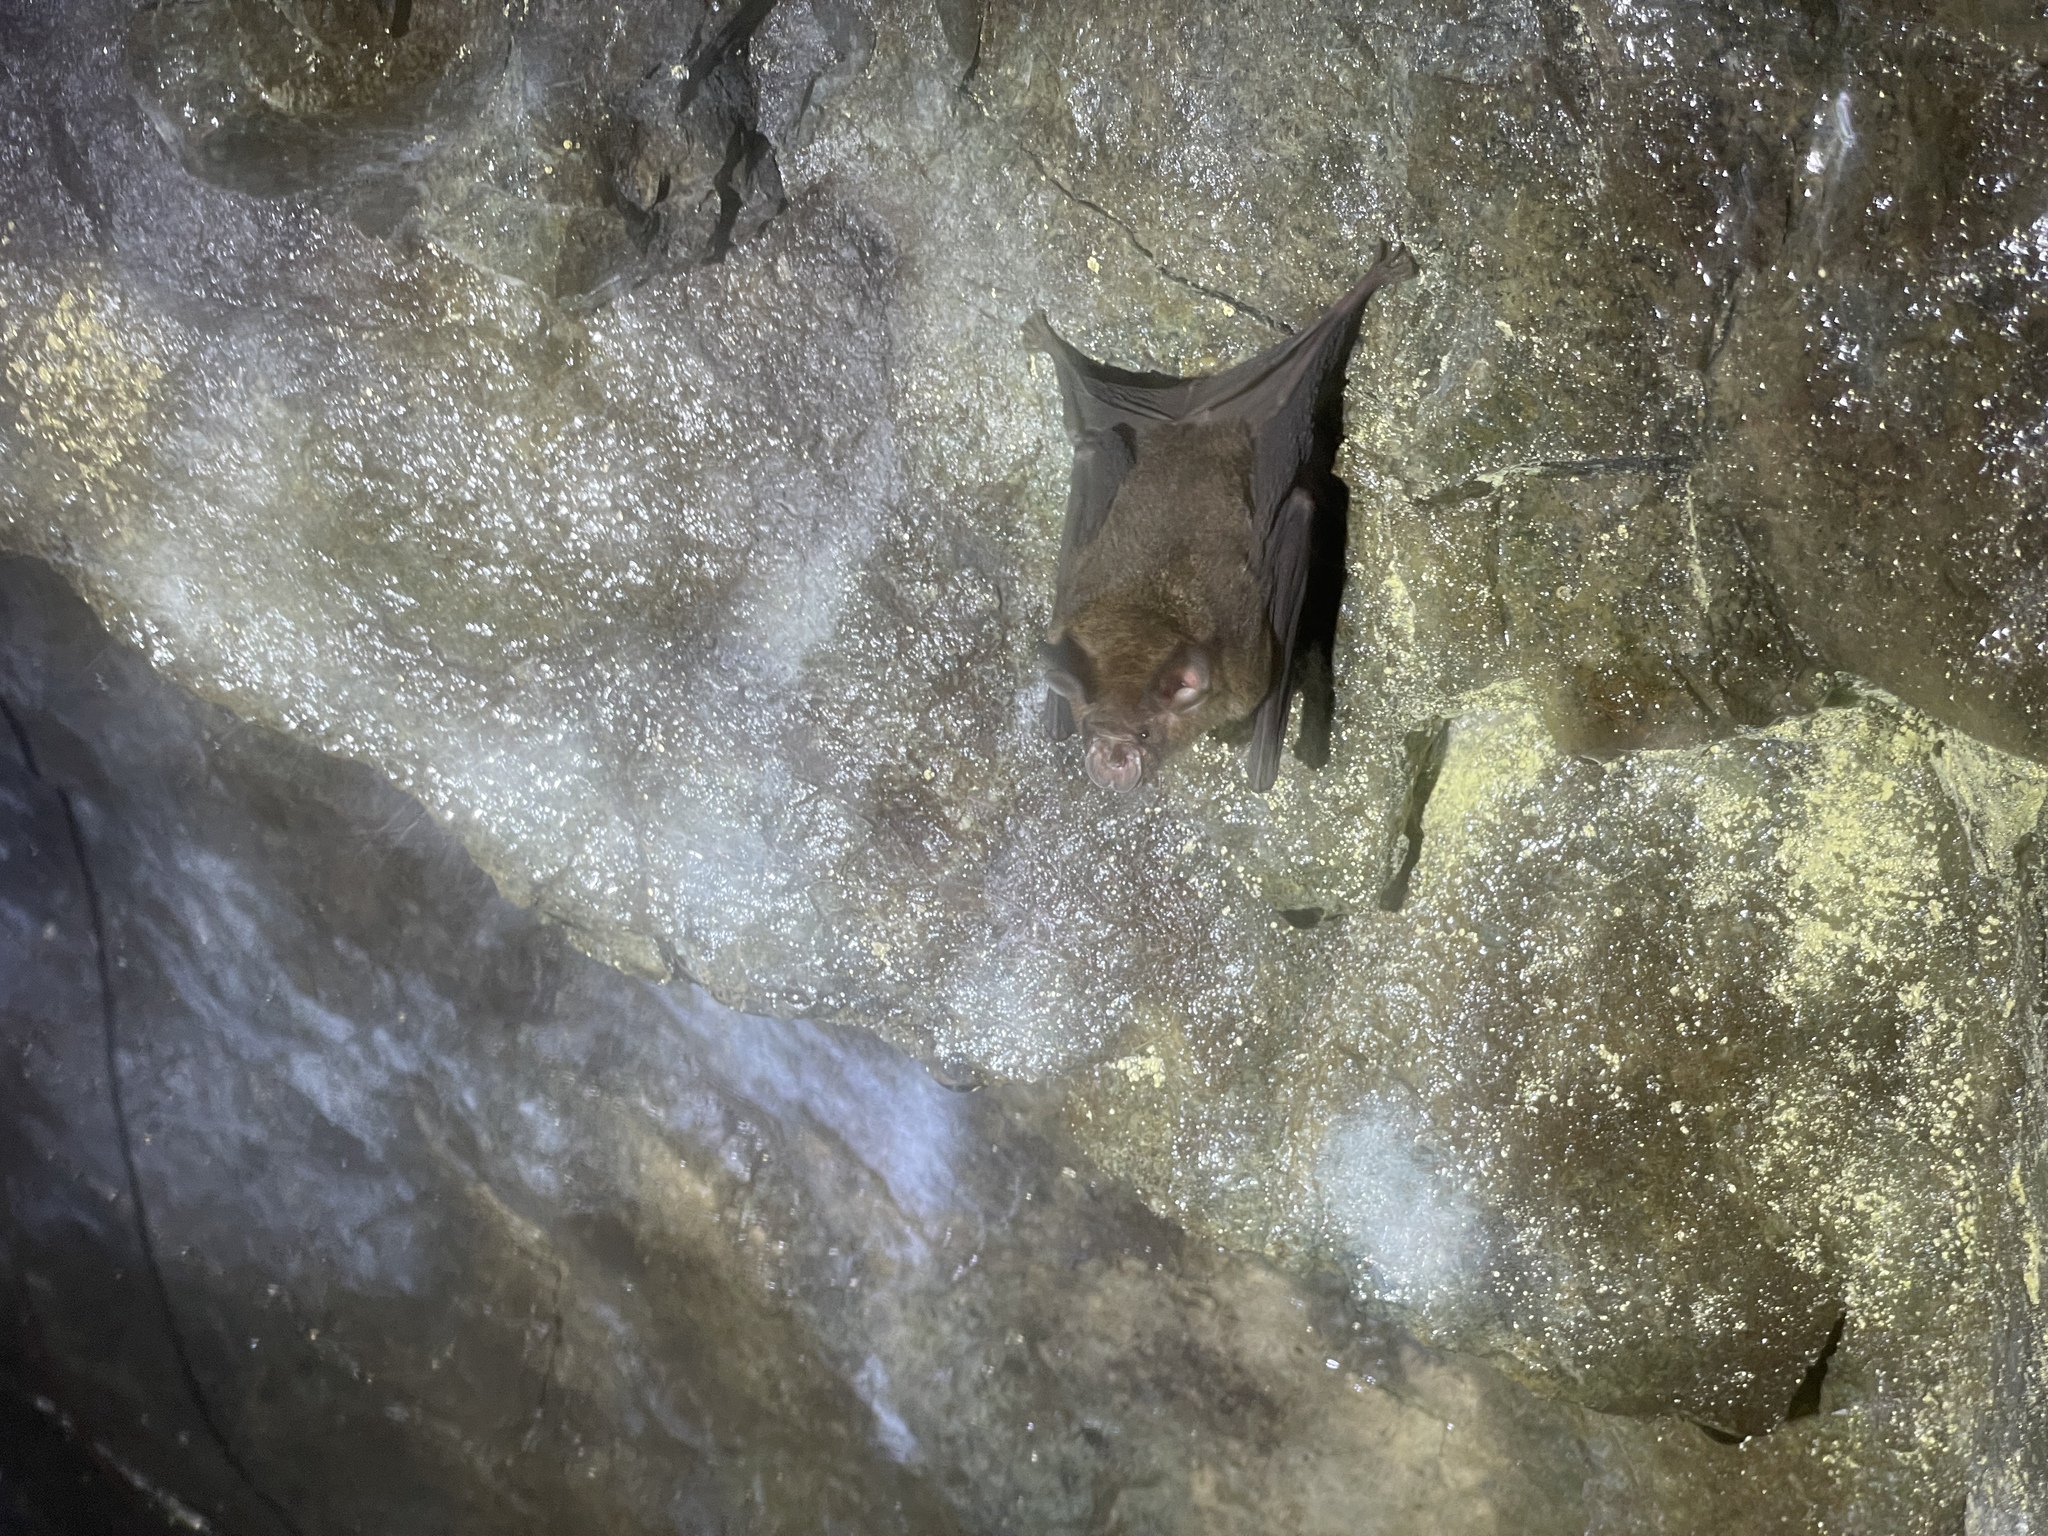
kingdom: Animalia
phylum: Chordata
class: Mammalia
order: Chiroptera
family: Rhinolophidae
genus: Rhinolophus
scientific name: Rhinolophus sinicus
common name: Chinese rufous horseshoe bat
